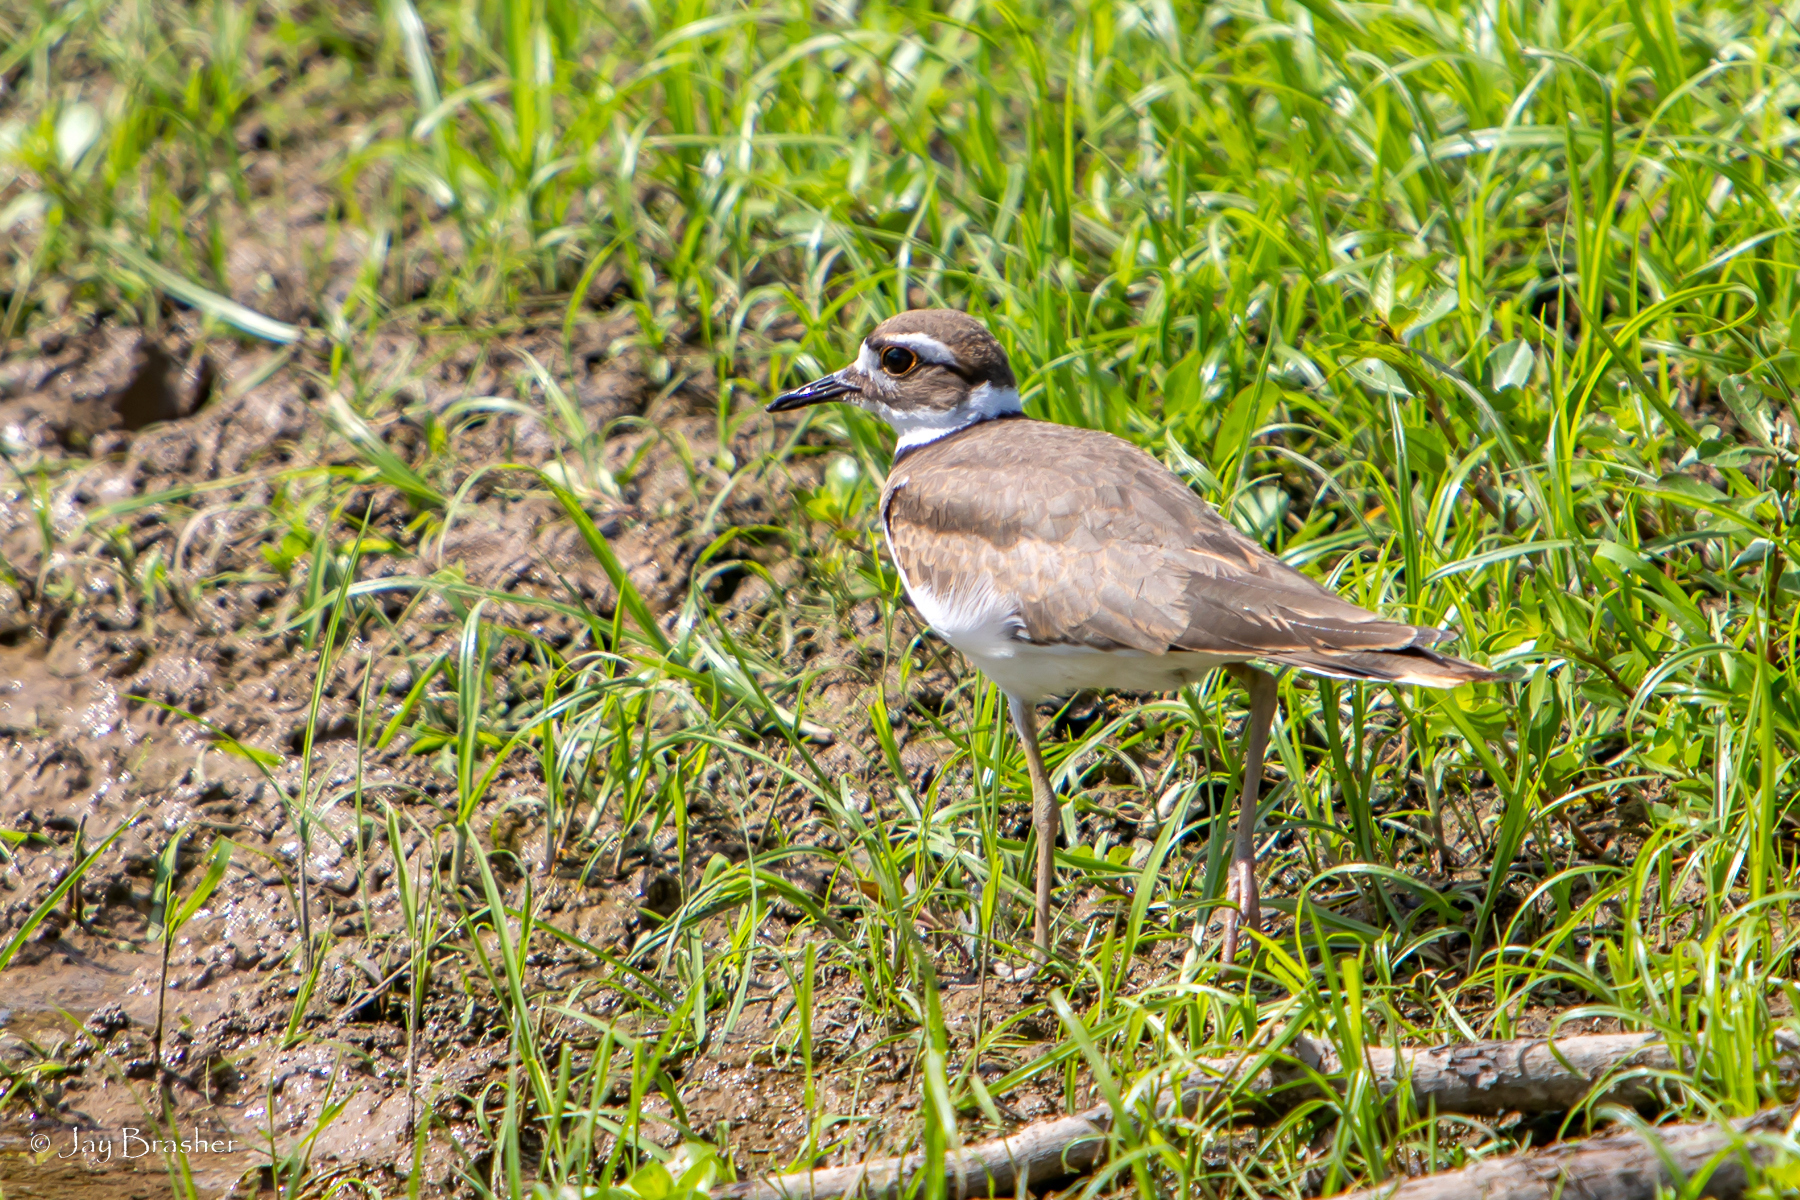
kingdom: Animalia
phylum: Chordata
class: Aves
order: Charadriiformes
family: Charadriidae
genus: Charadrius
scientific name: Charadrius vociferus
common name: Killdeer
